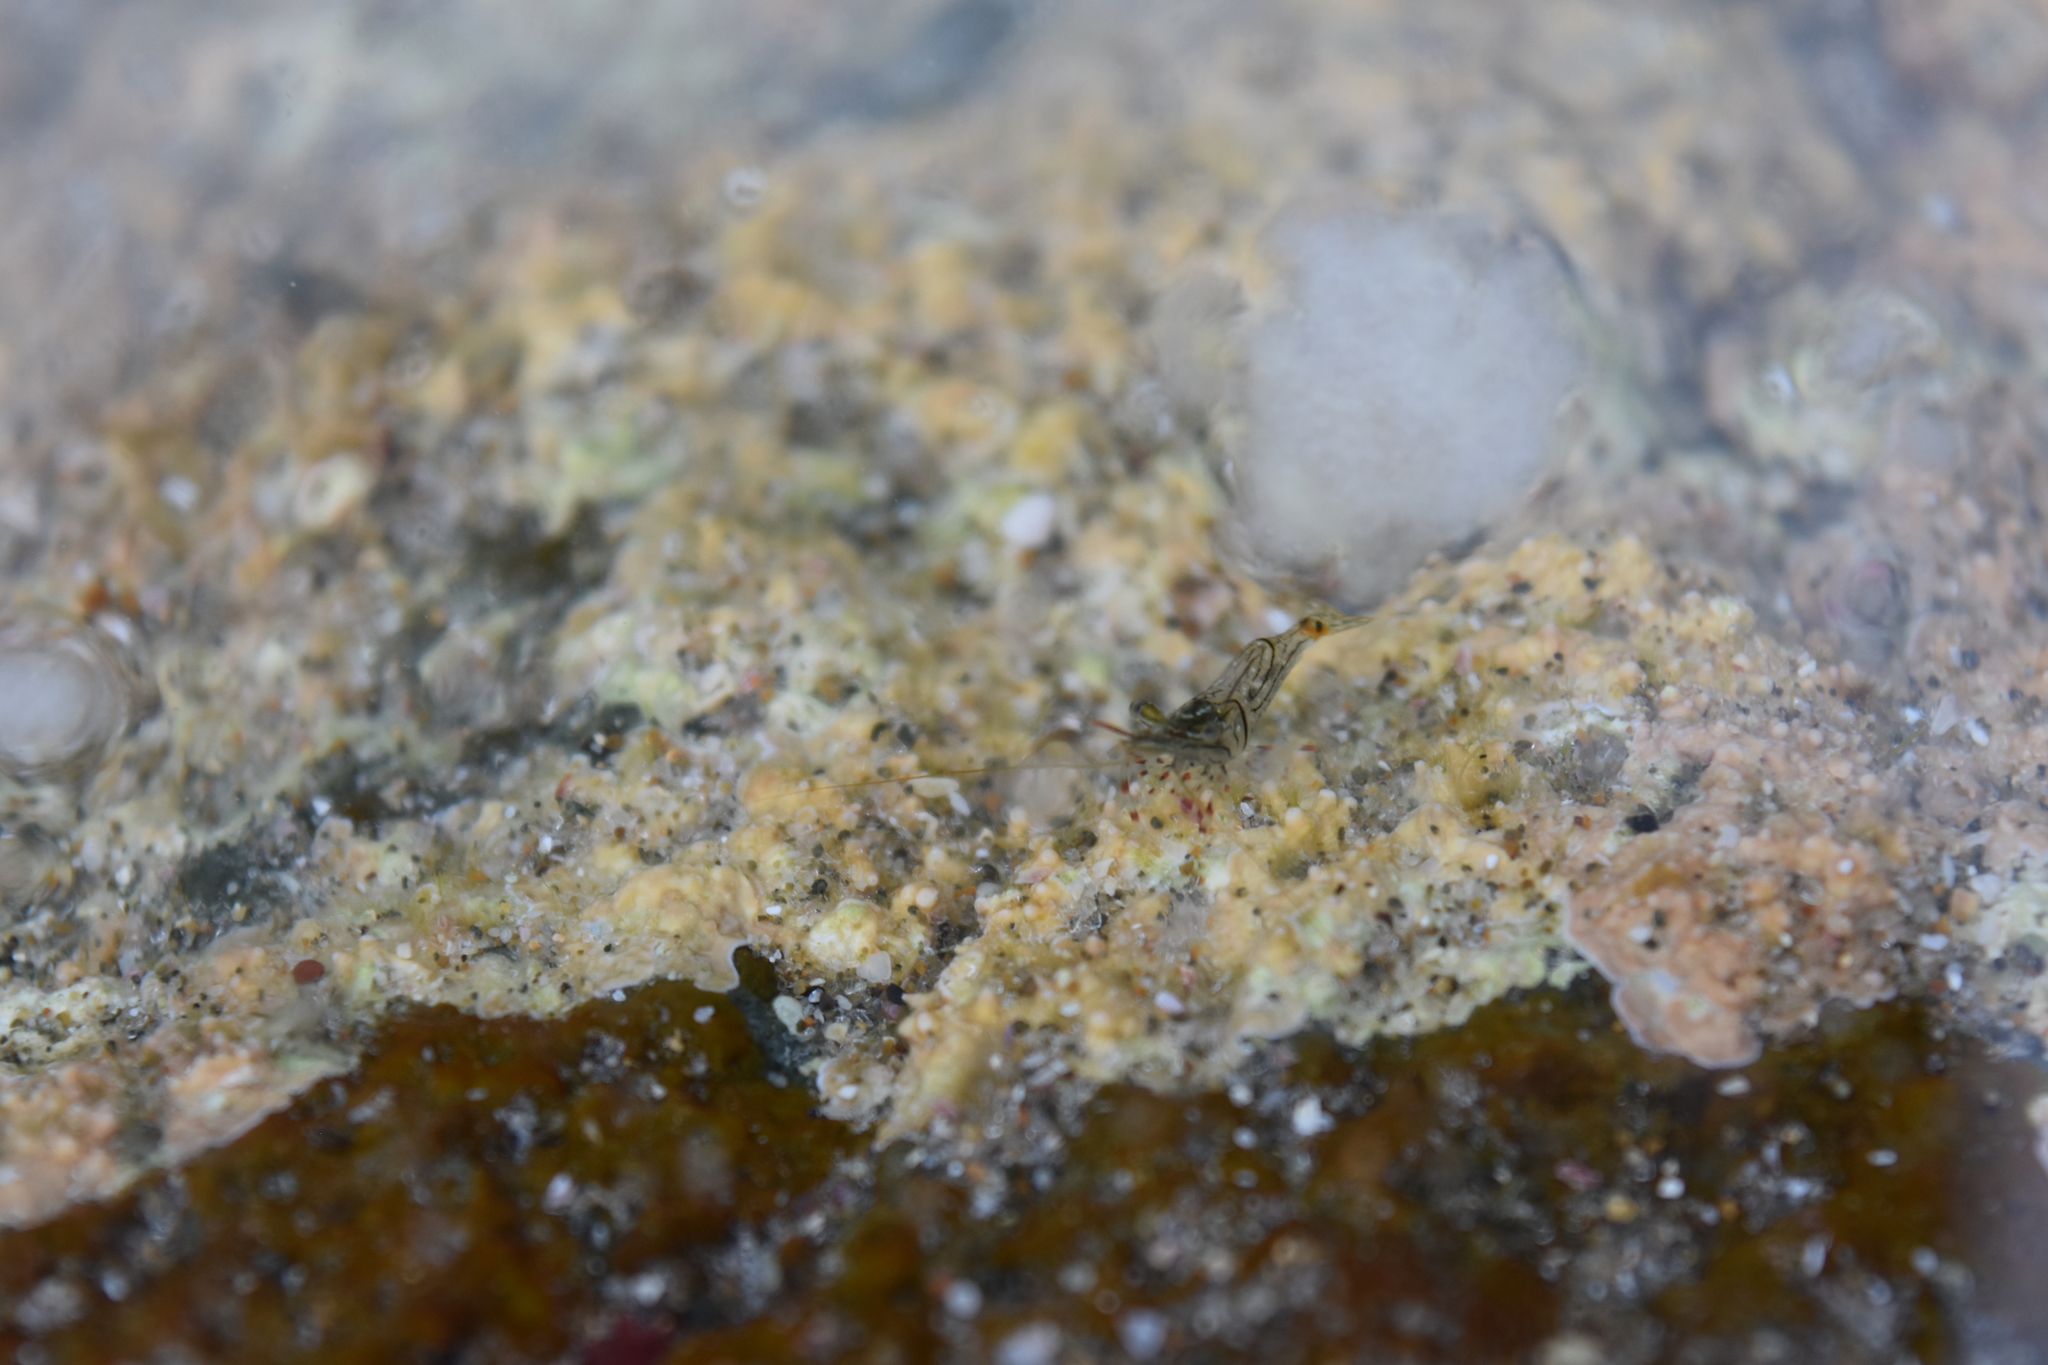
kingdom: Animalia
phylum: Arthropoda
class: Malacostraca
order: Decapoda
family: Palaemonidae
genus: Palaemon
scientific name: Palaemon affinis
